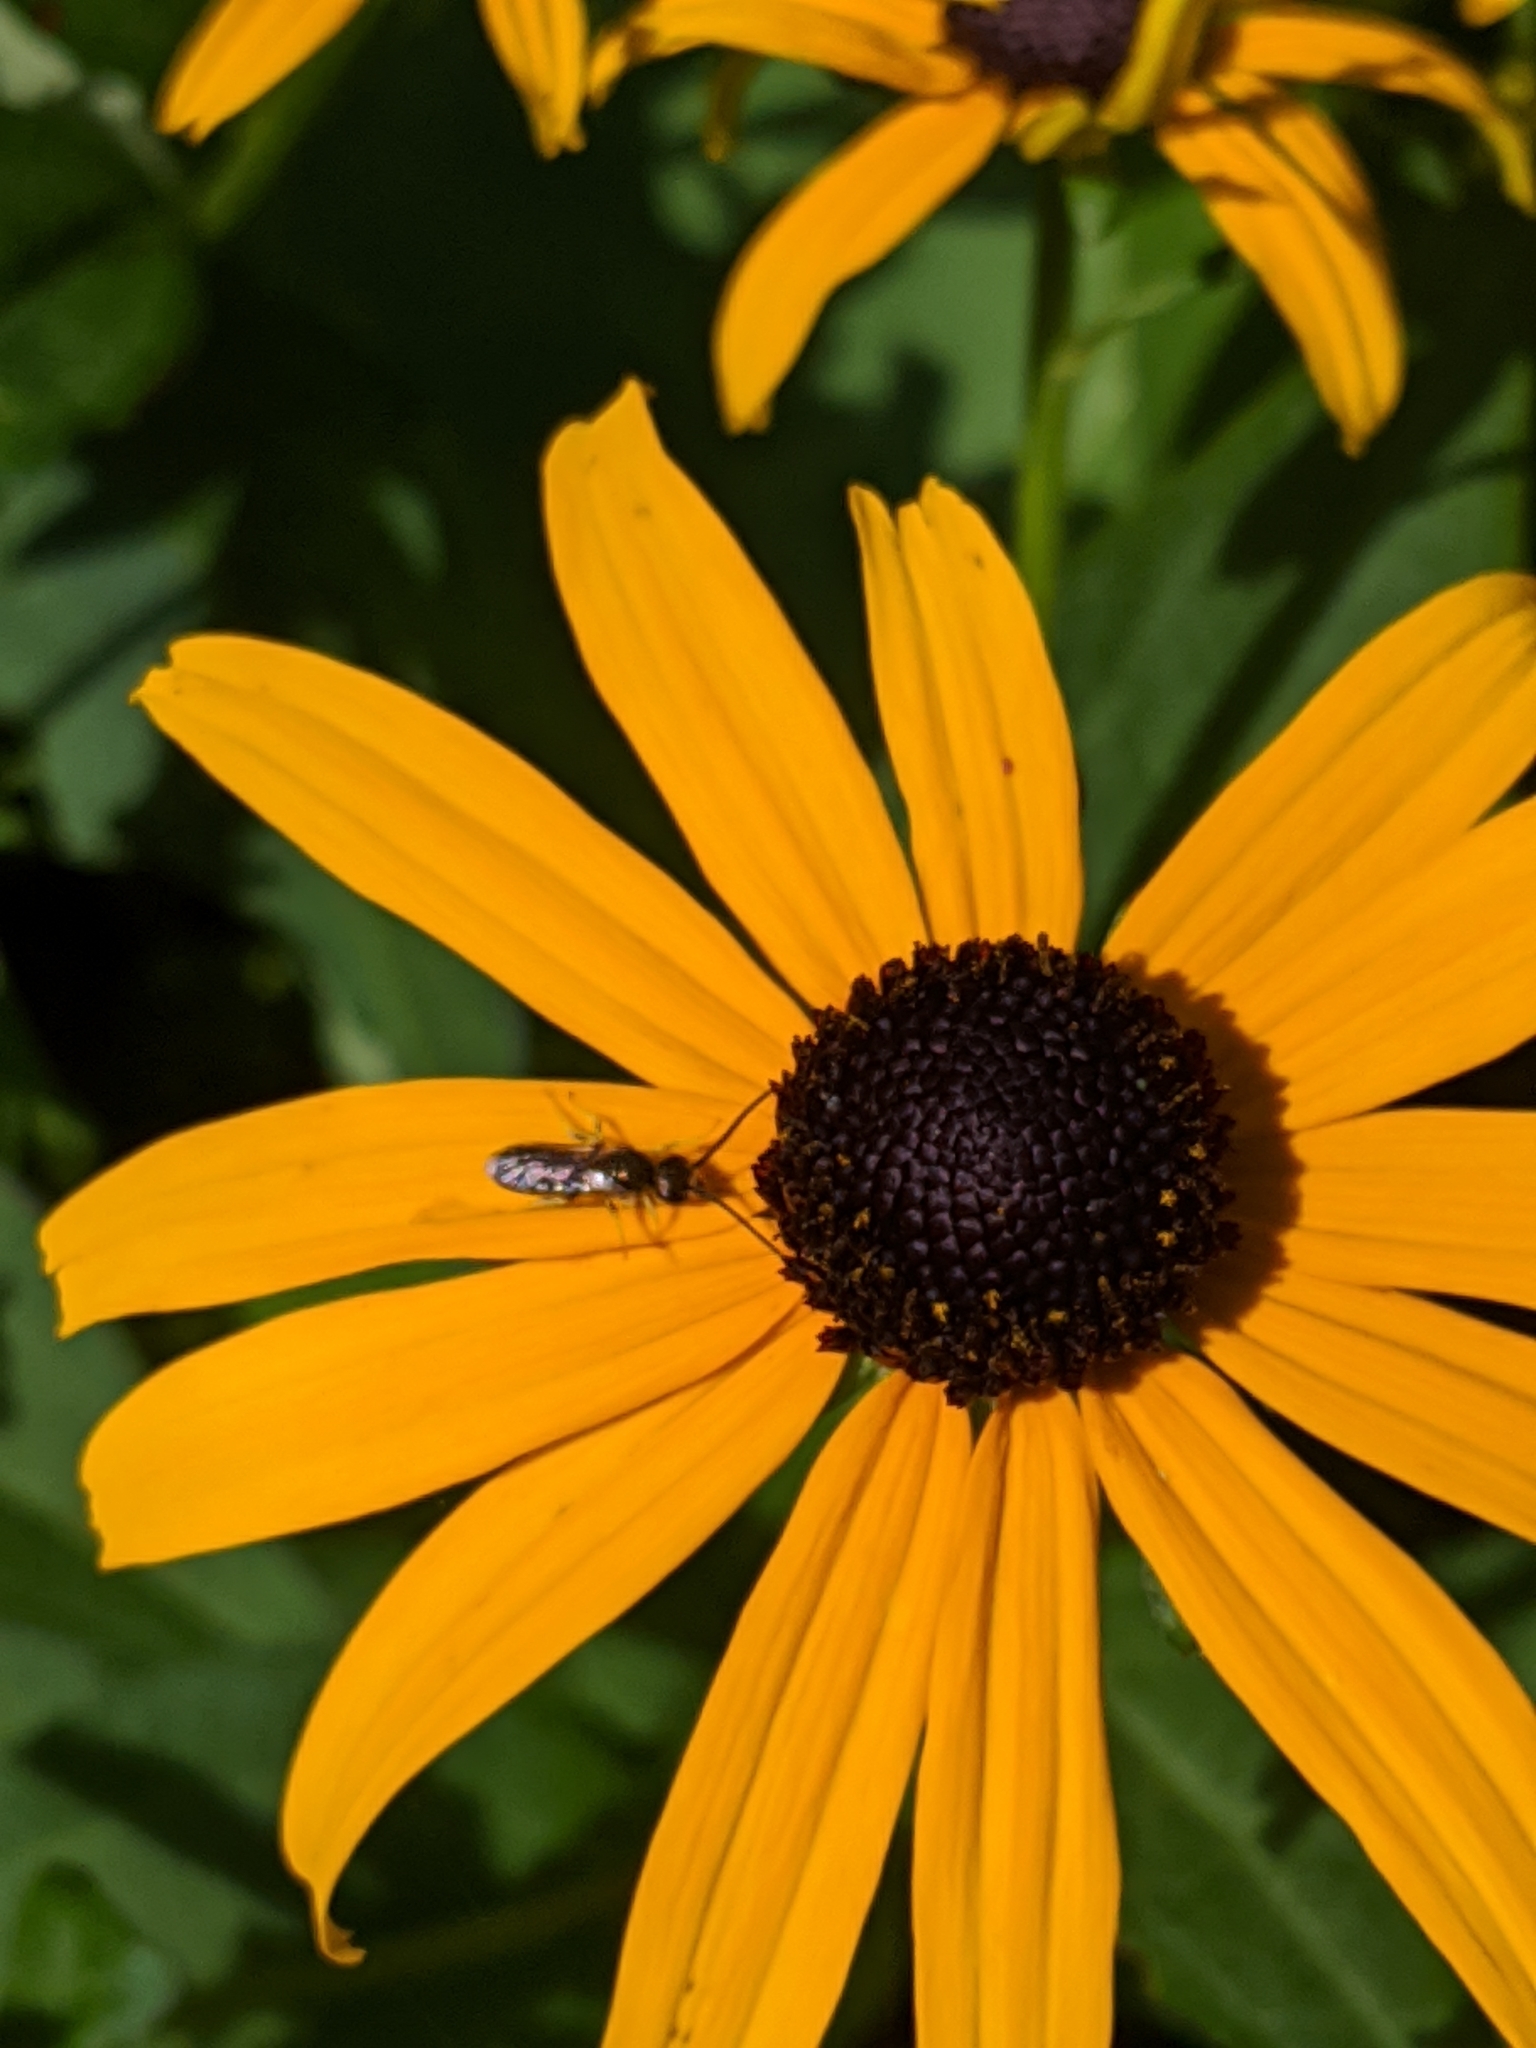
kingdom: Animalia
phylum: Arthropoda
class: Insecta
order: Hymenoptera
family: Halictidae
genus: Halictus
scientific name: Halictus confusus
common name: Southern bronze furrow bee
